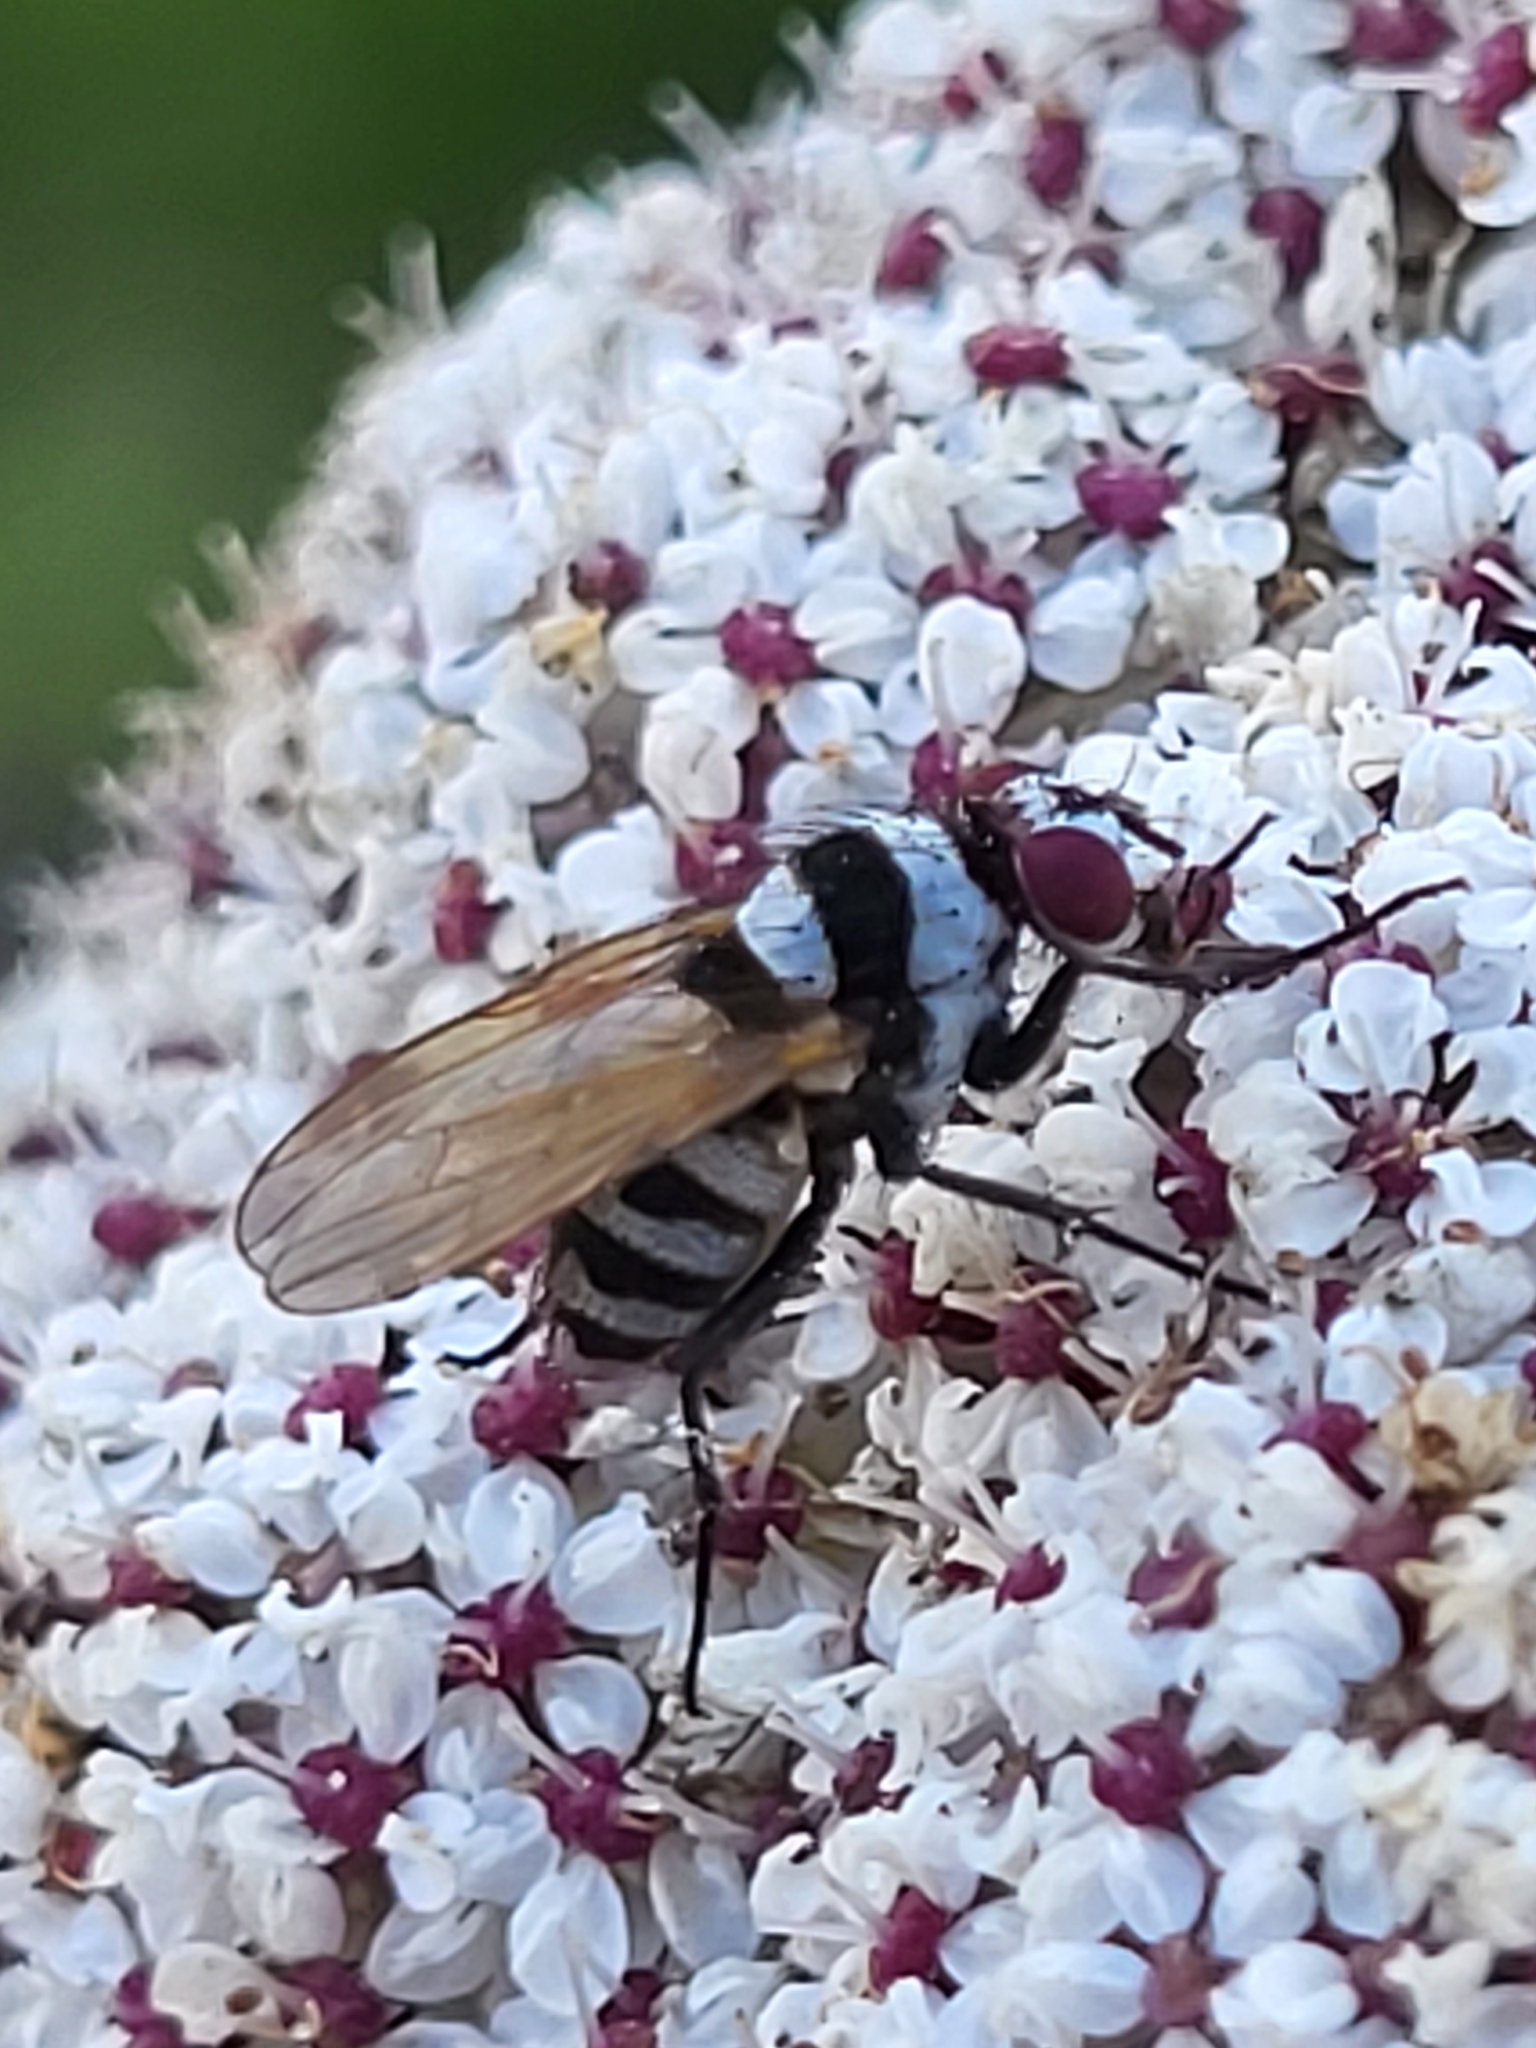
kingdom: Animalia
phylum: Arthropoda
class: Insecta
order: Diptera
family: Anthomyiidae
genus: Anthomyia
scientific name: Anthomyia amoena
